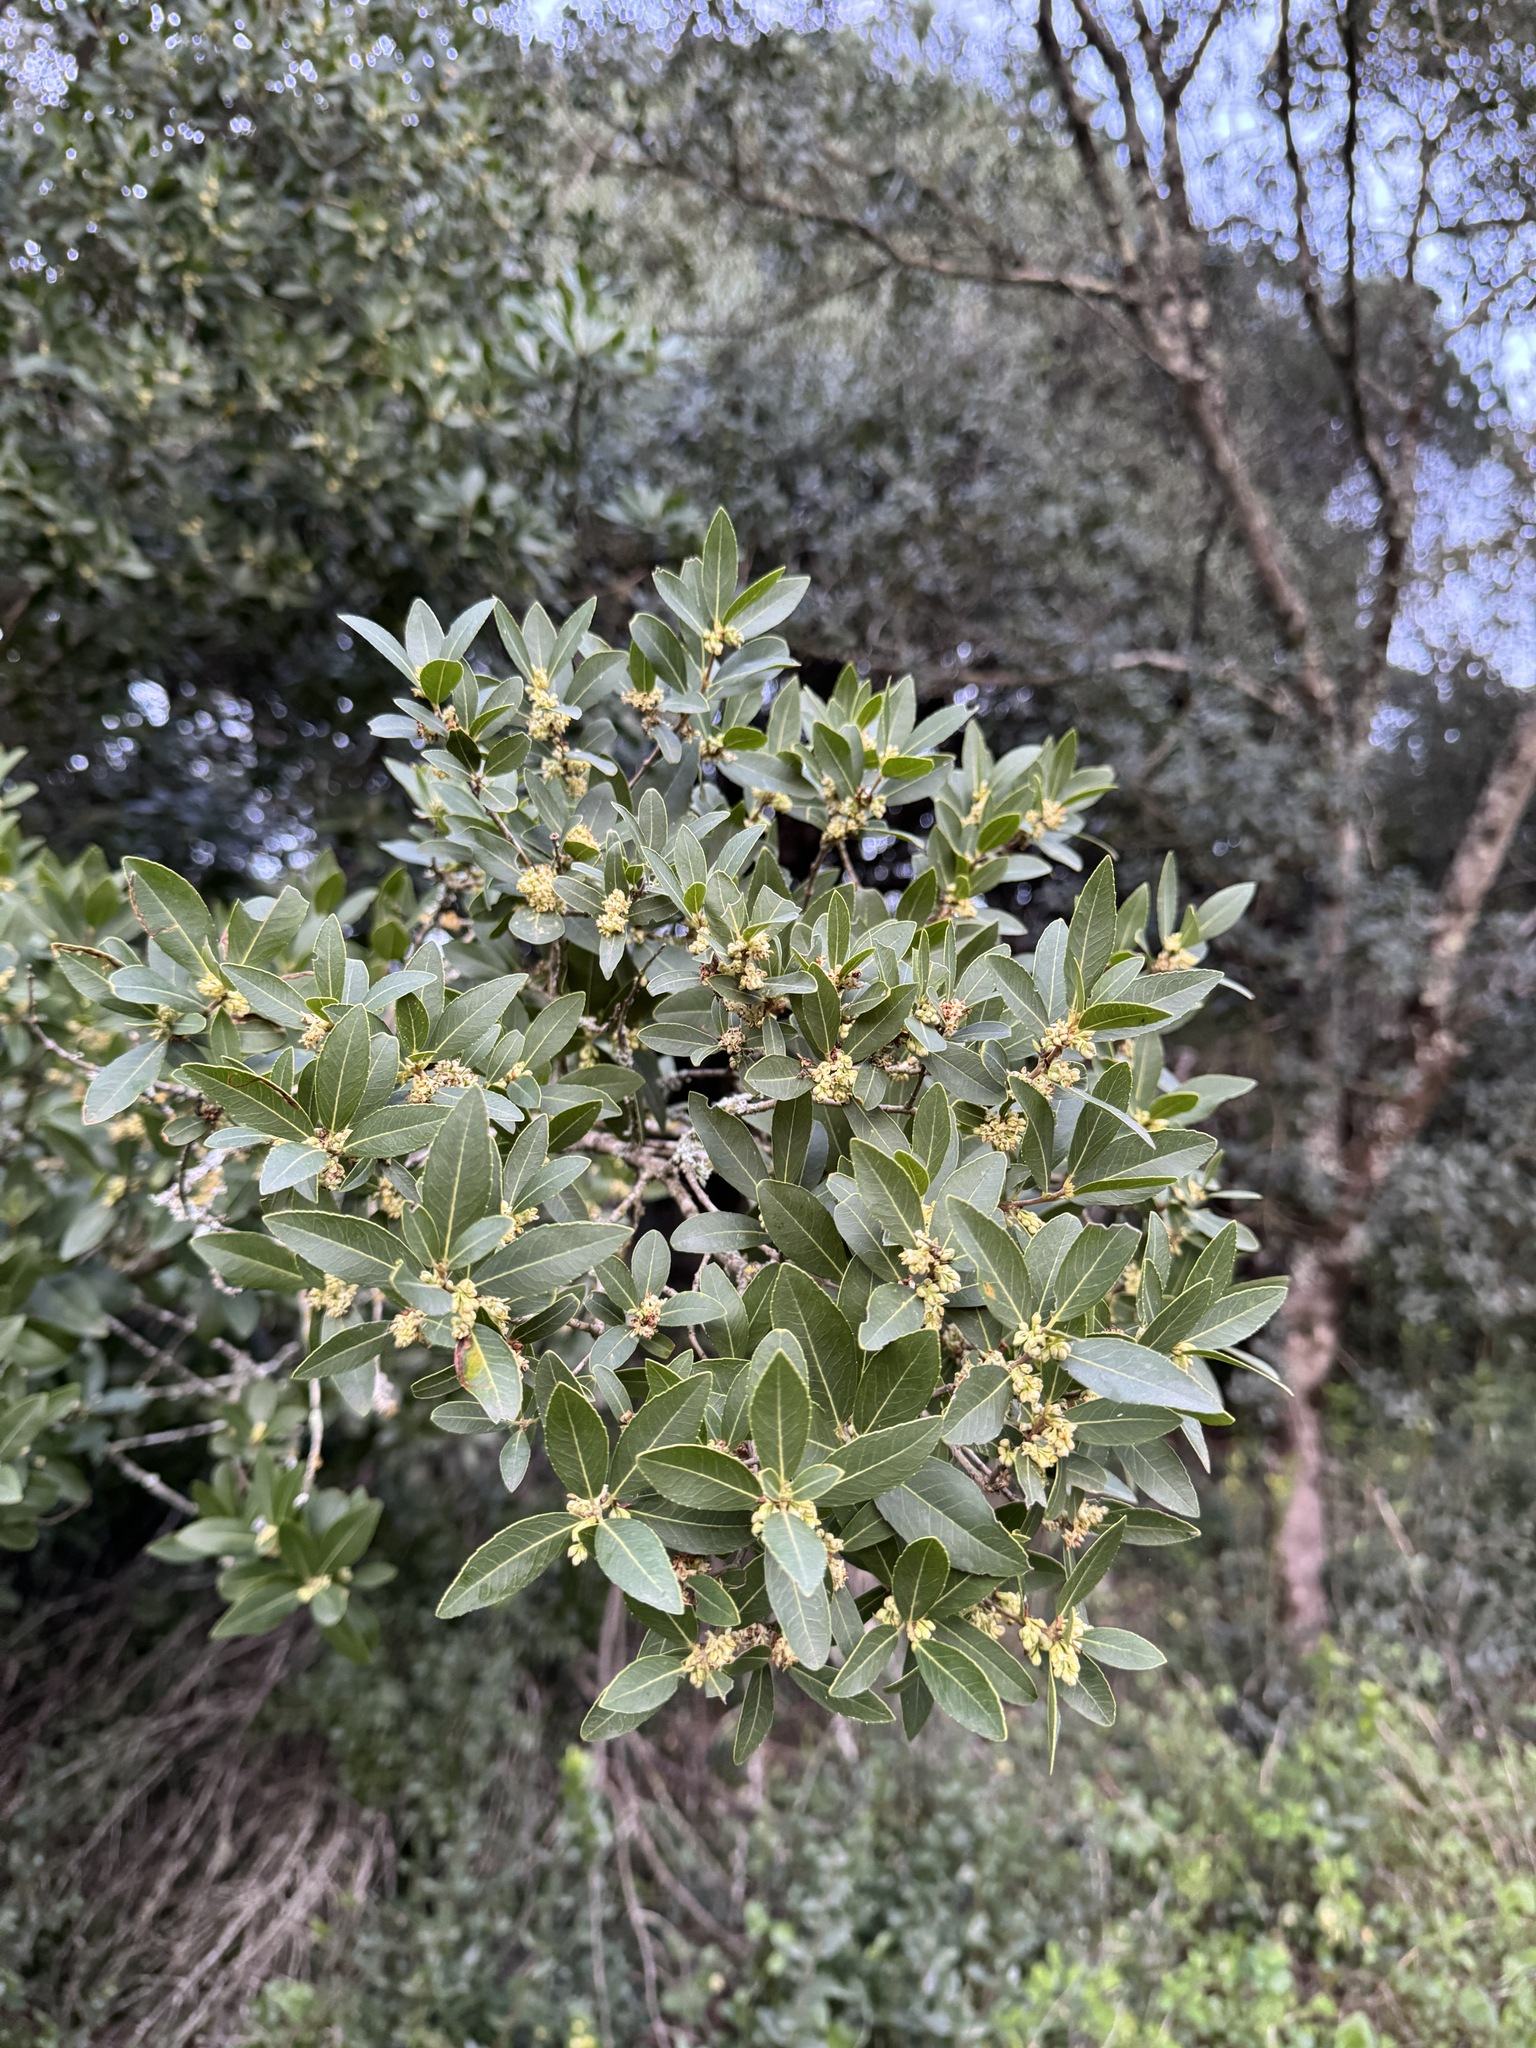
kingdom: Plantae
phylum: Tracheophyta
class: Magnoliopsida
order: Lamiales
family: Oleaceae
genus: Phillyrea
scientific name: Phillyrea latifolia
